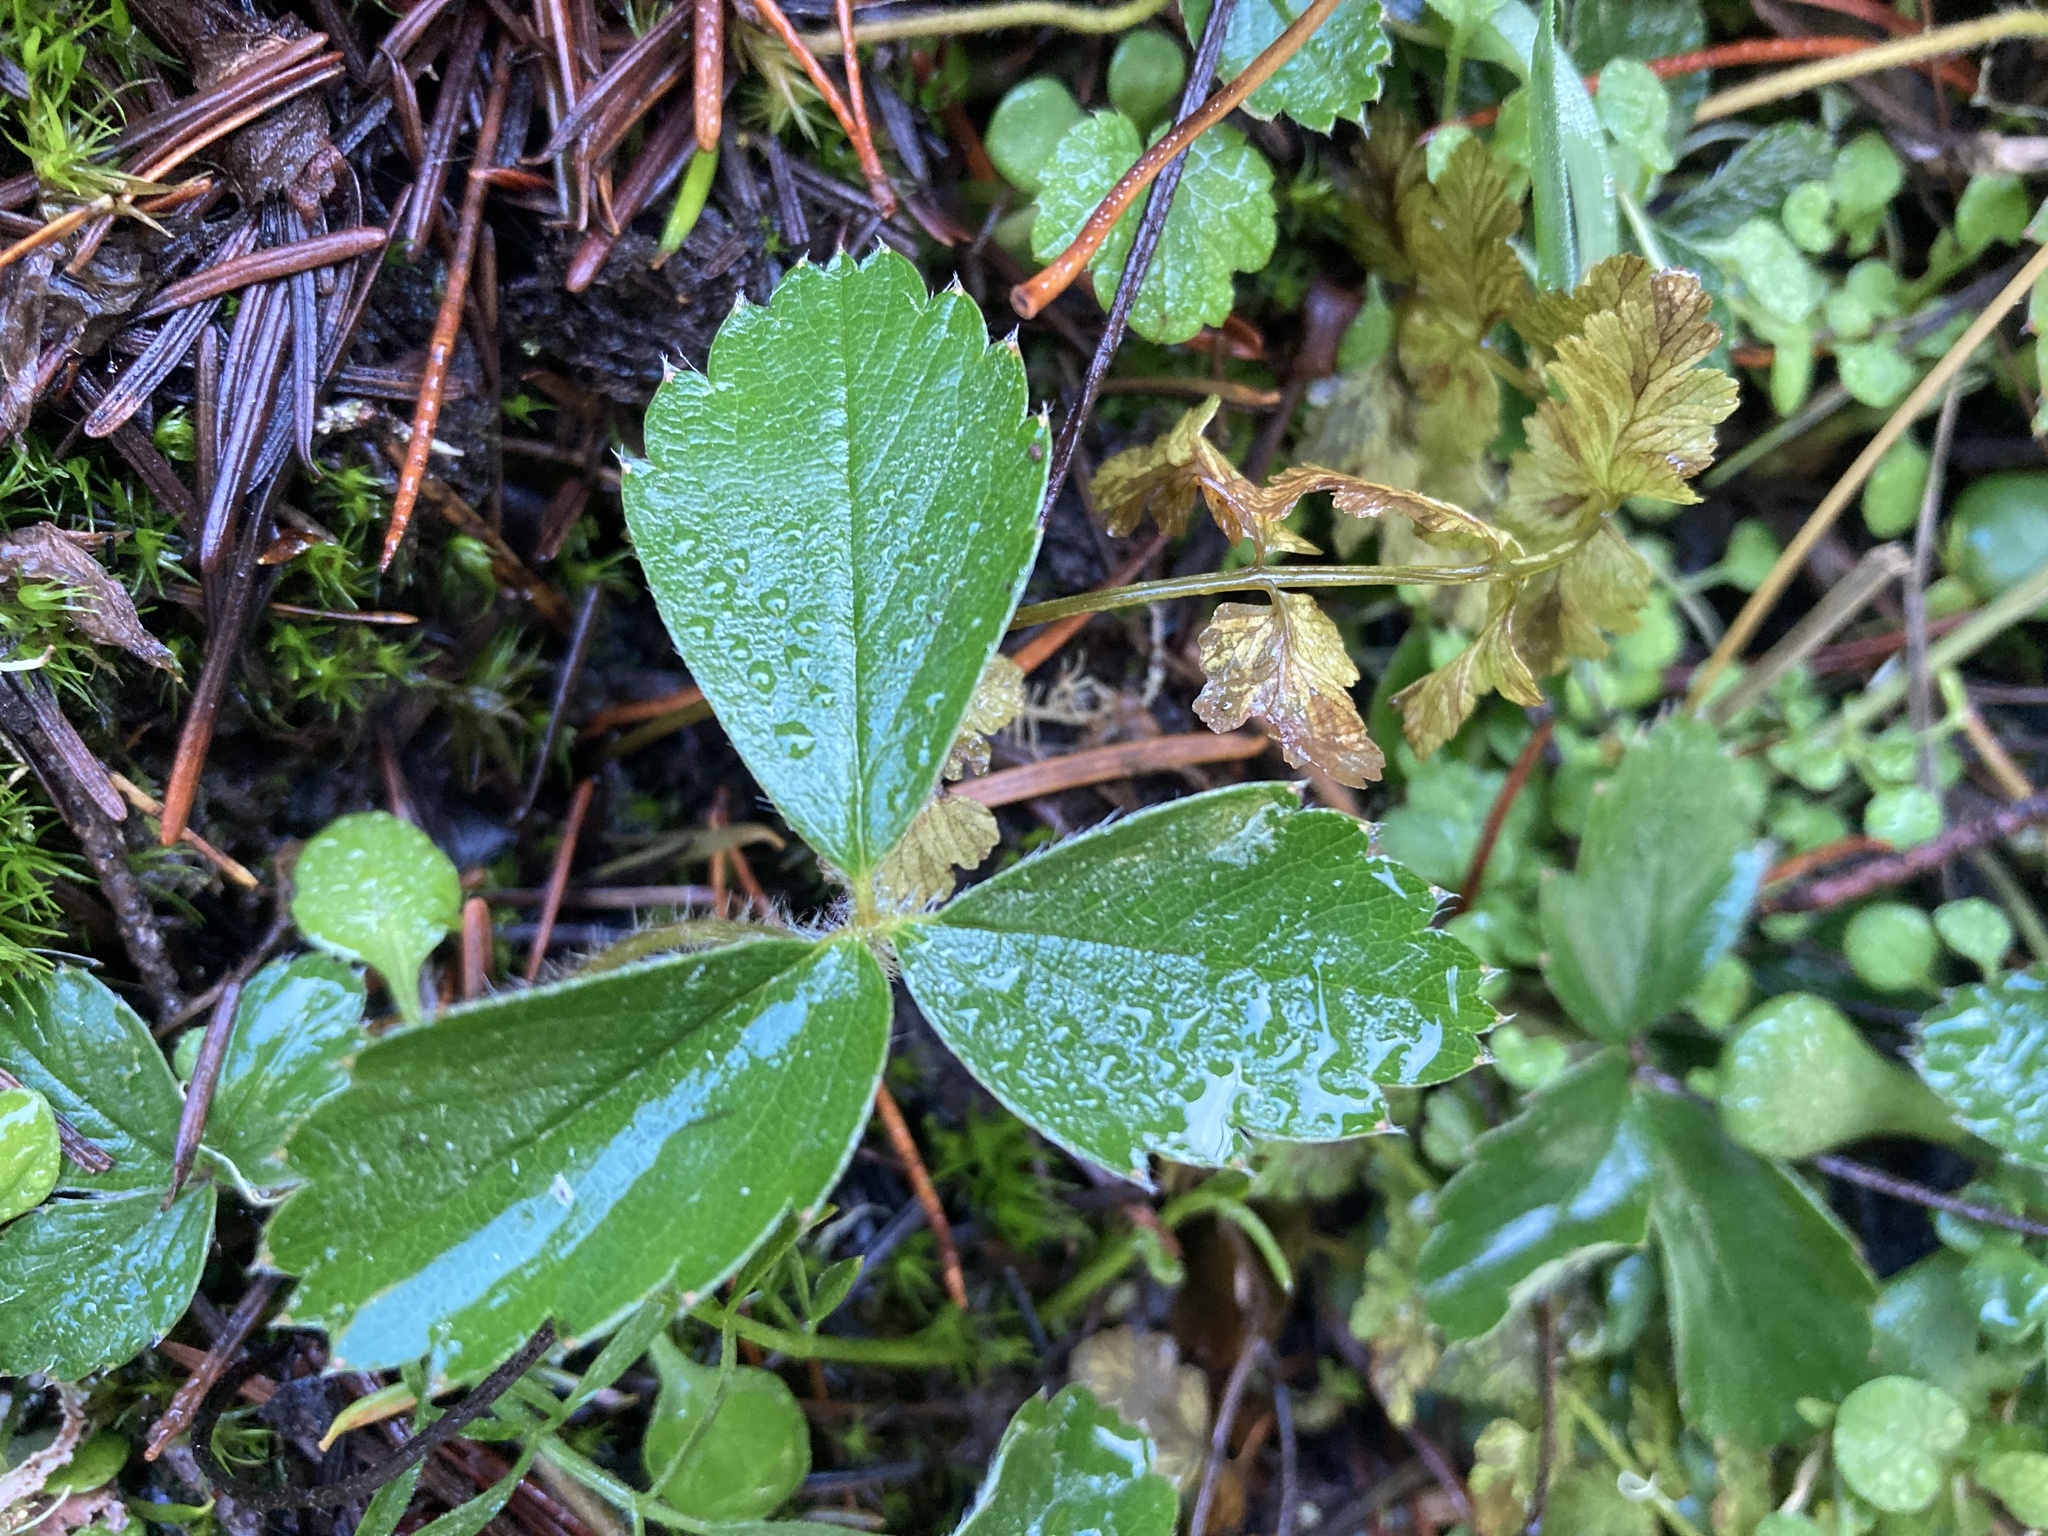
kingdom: Plantae
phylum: Tracheophyta
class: Magnoliopsida
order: Rosales
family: Rosaceae
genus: Fragaria
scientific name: Fragaria virginiana
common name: Thickleaved wild strawberry
